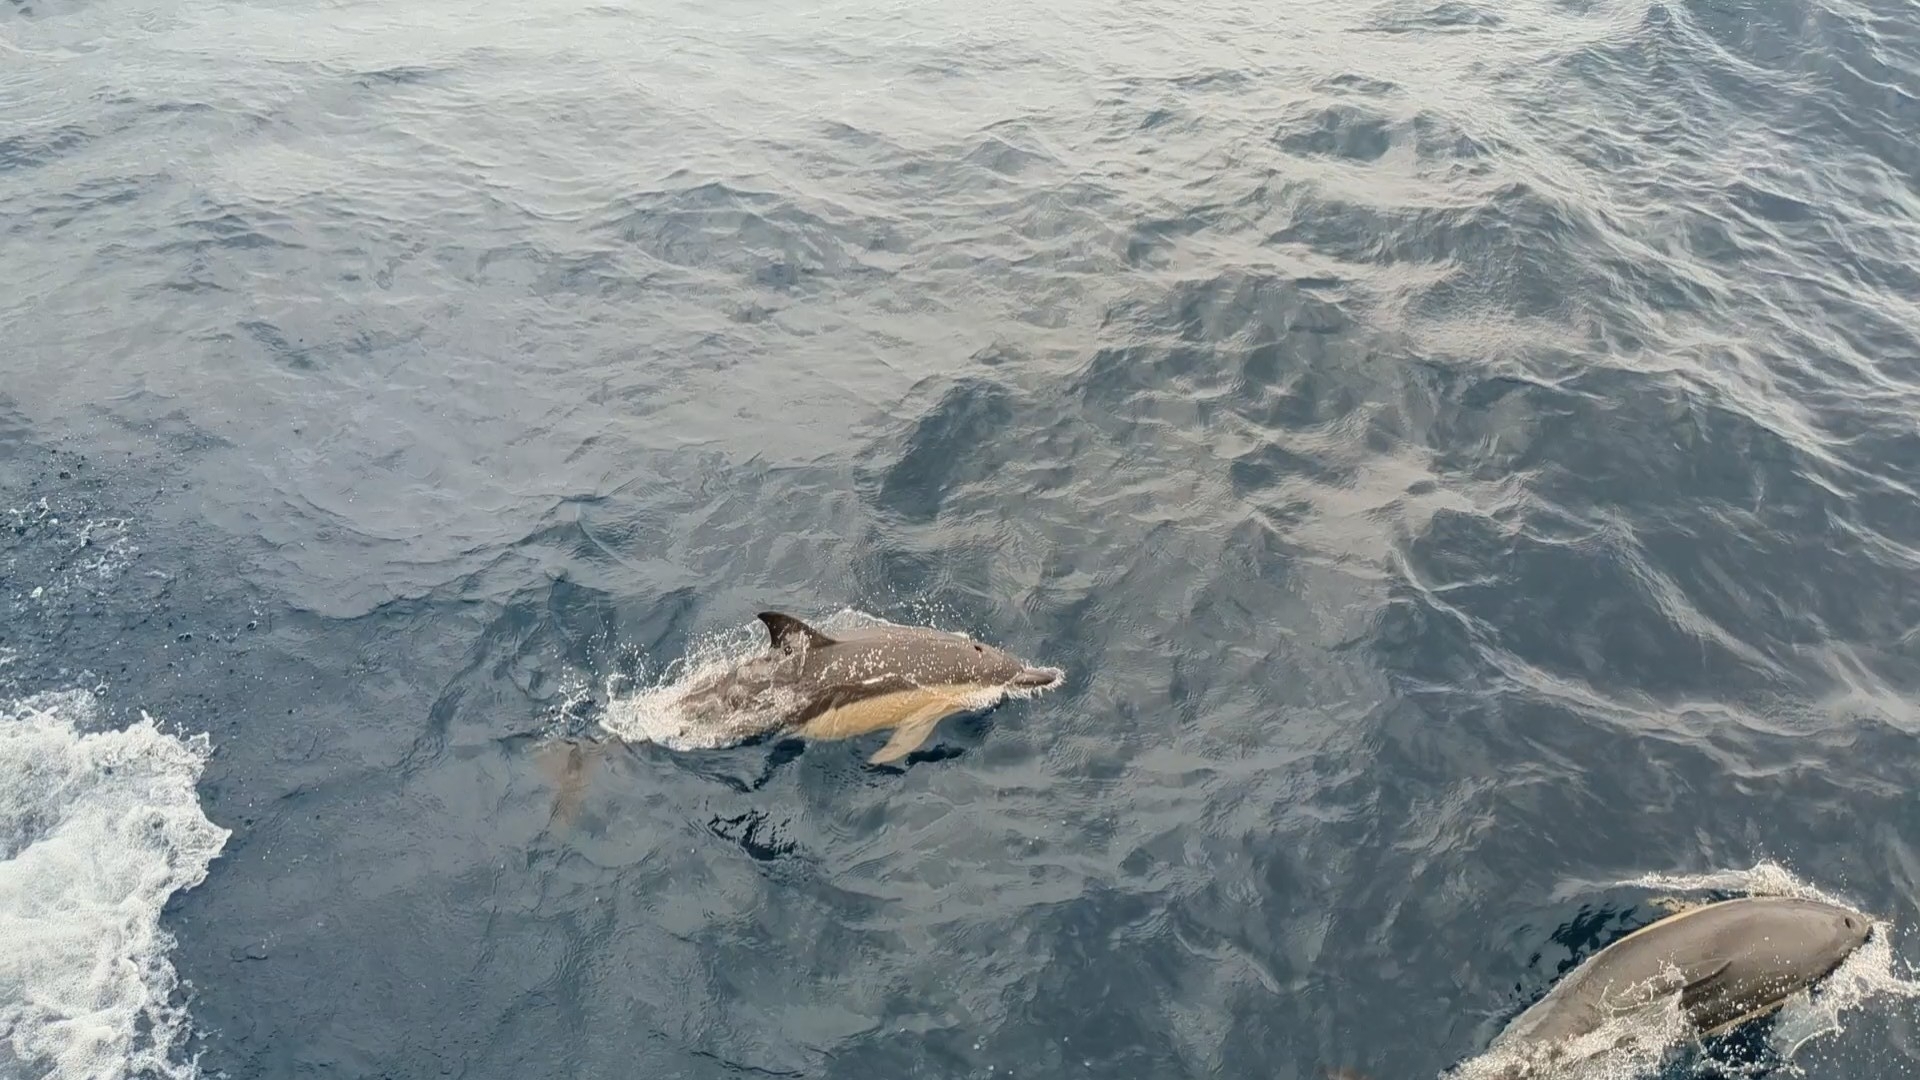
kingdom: Animalia
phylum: Chordata
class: Mammalia
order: Cetacea
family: Delphinidae
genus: Delphinus
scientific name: Delphinus delphis
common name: Common dolphin
